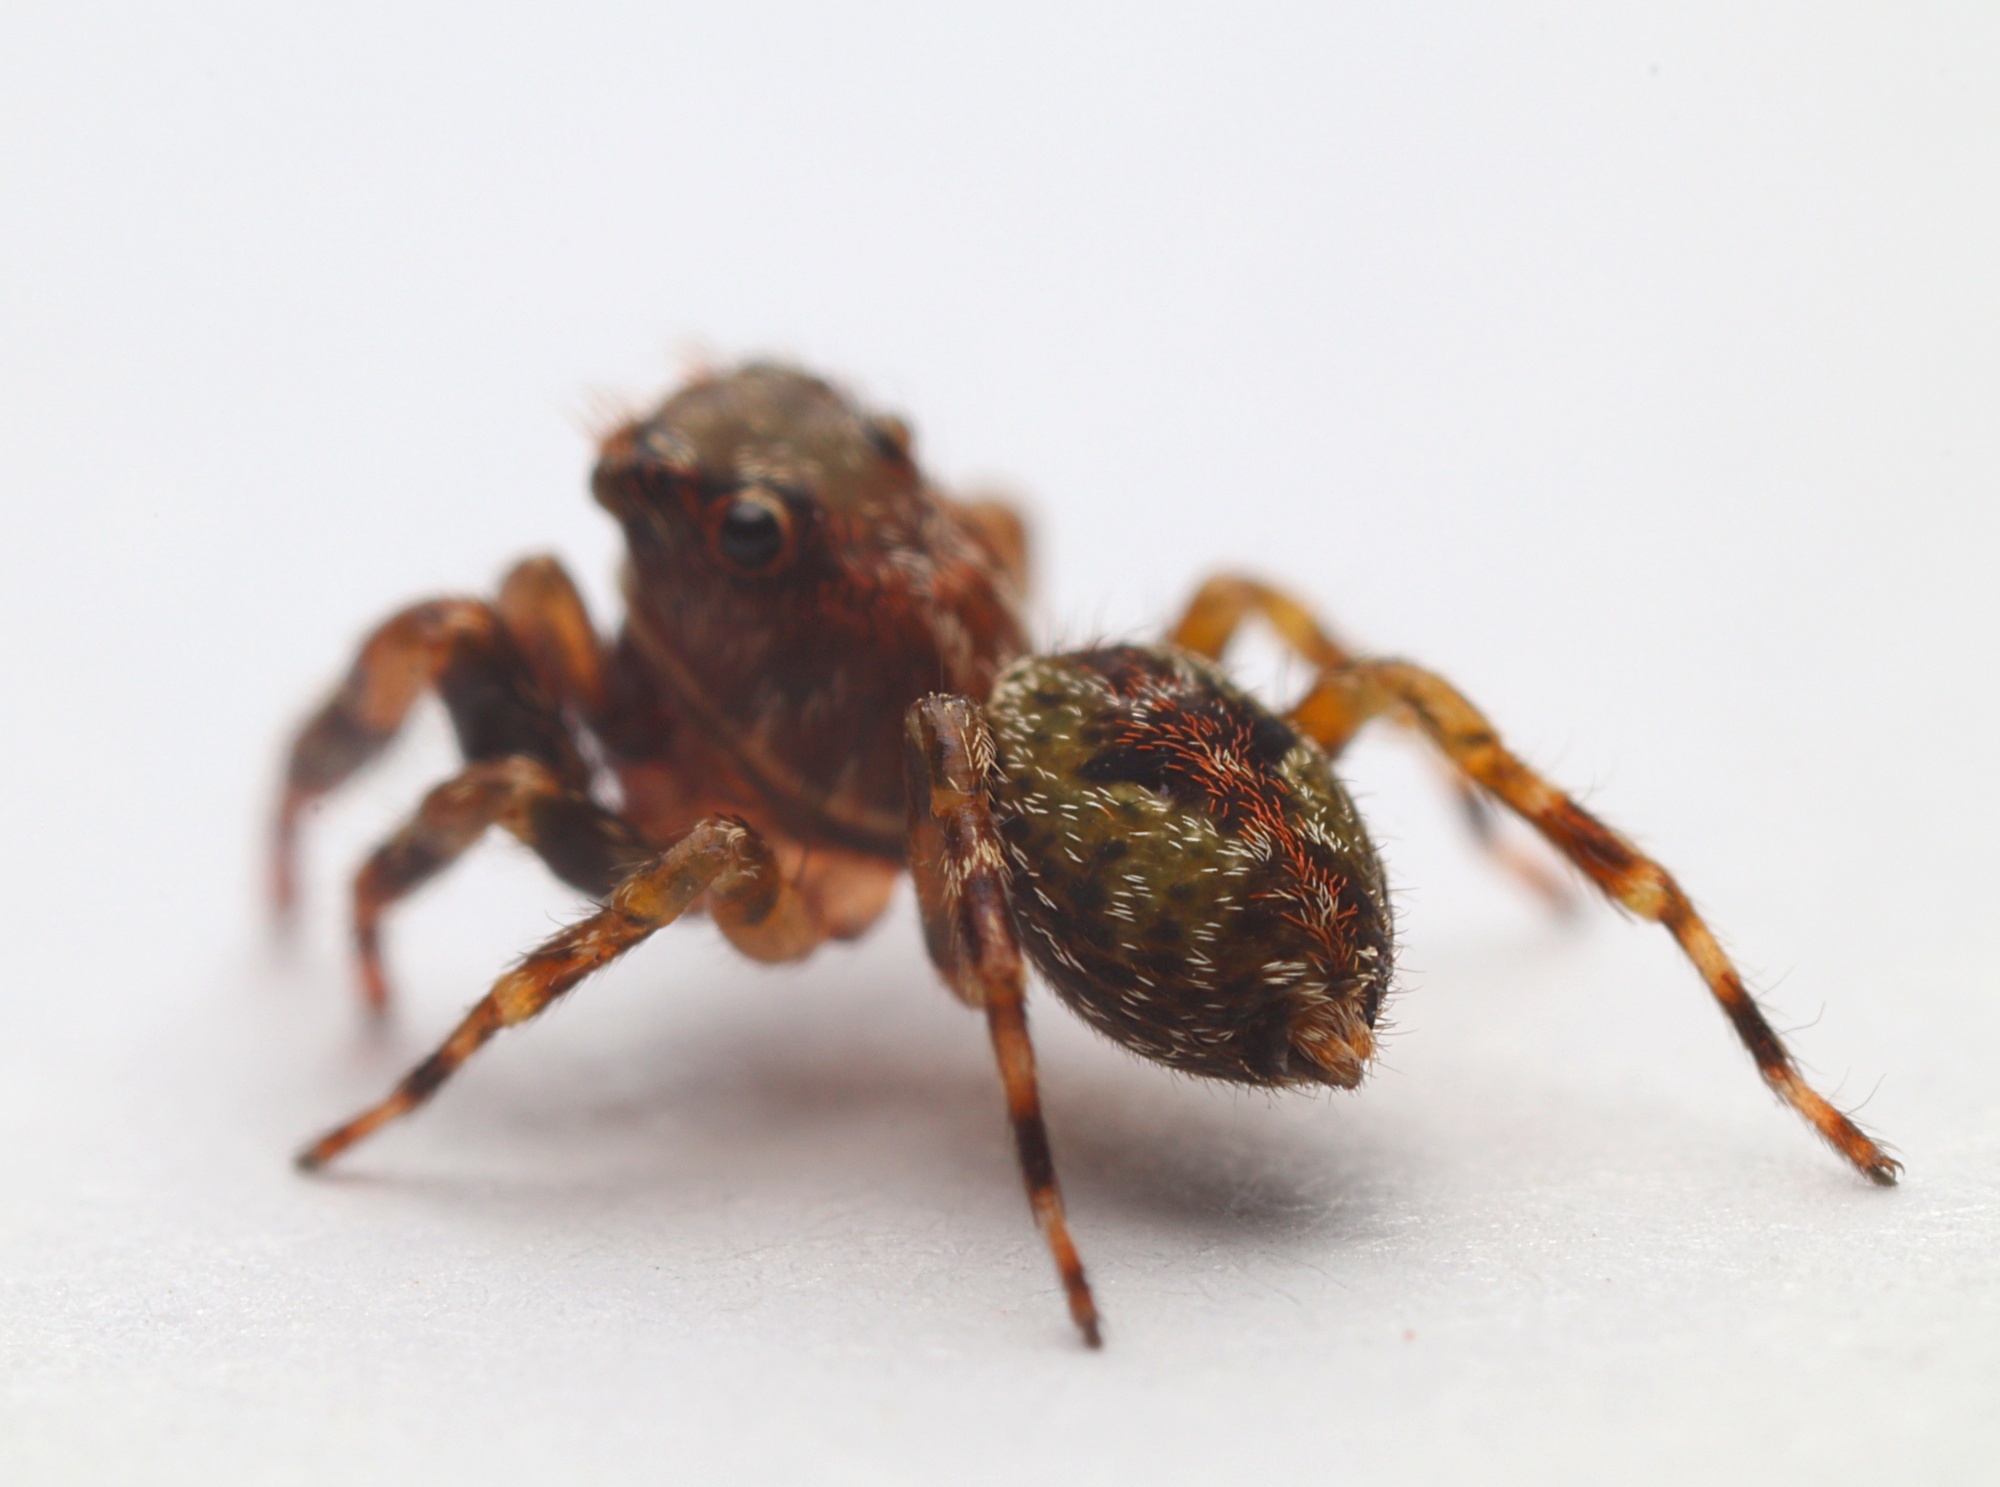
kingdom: Animalia
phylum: Arthropoda
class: Arachnida
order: Araneae
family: Salticidae
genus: Hinewaia
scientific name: Hinewaia embolica
